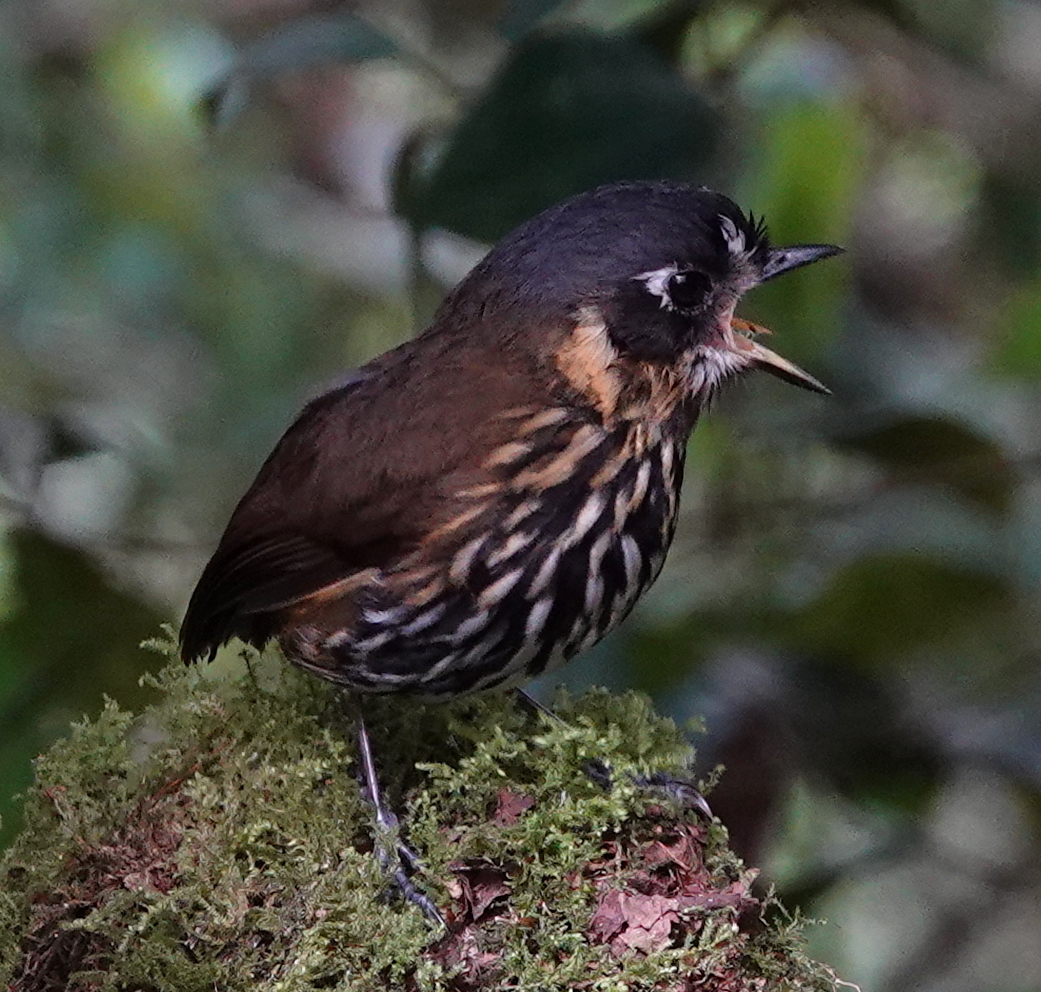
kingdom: Animalia
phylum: Chordata
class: Aves
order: Passeriformes
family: Grallariidae
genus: Grallaricula
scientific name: Grallaricula lineifrons
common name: Crescent-faced antpitta
